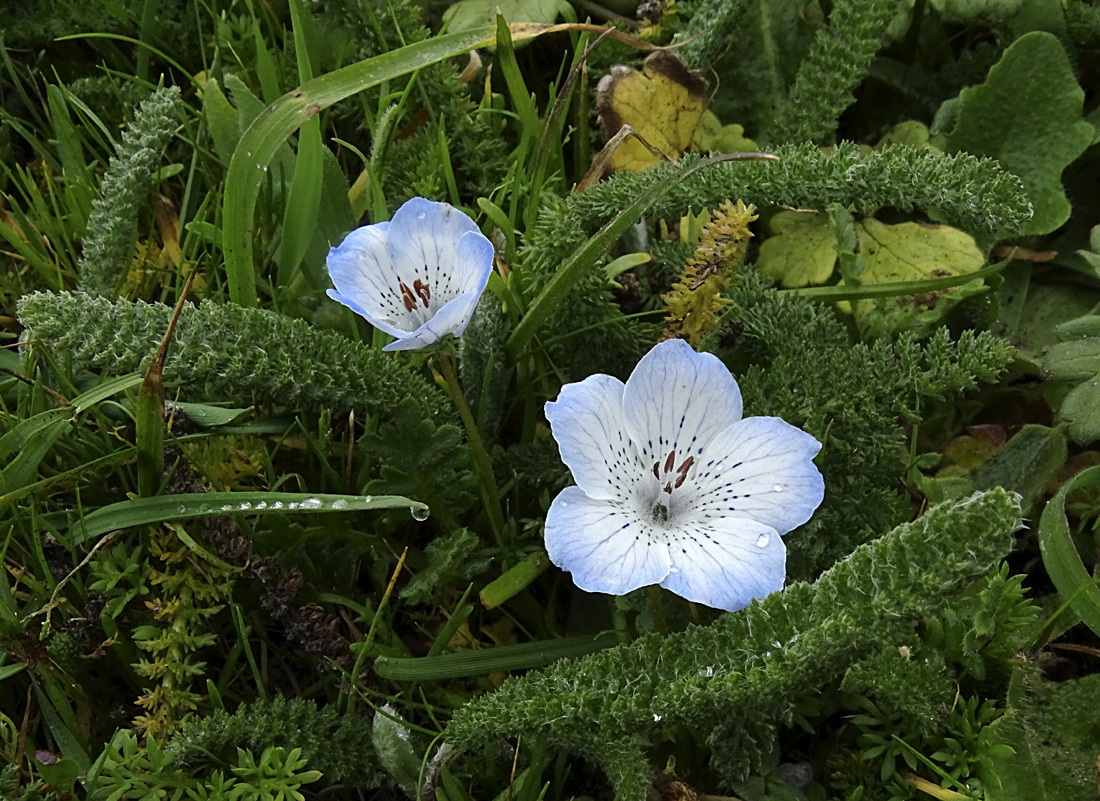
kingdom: Plantae
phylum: Tracheophyta
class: Magnoliopsida
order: Boraginales
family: Hydrophyllaceae
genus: Nemophila
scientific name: Nemophila menziesii
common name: Baby's-blue-eyes
